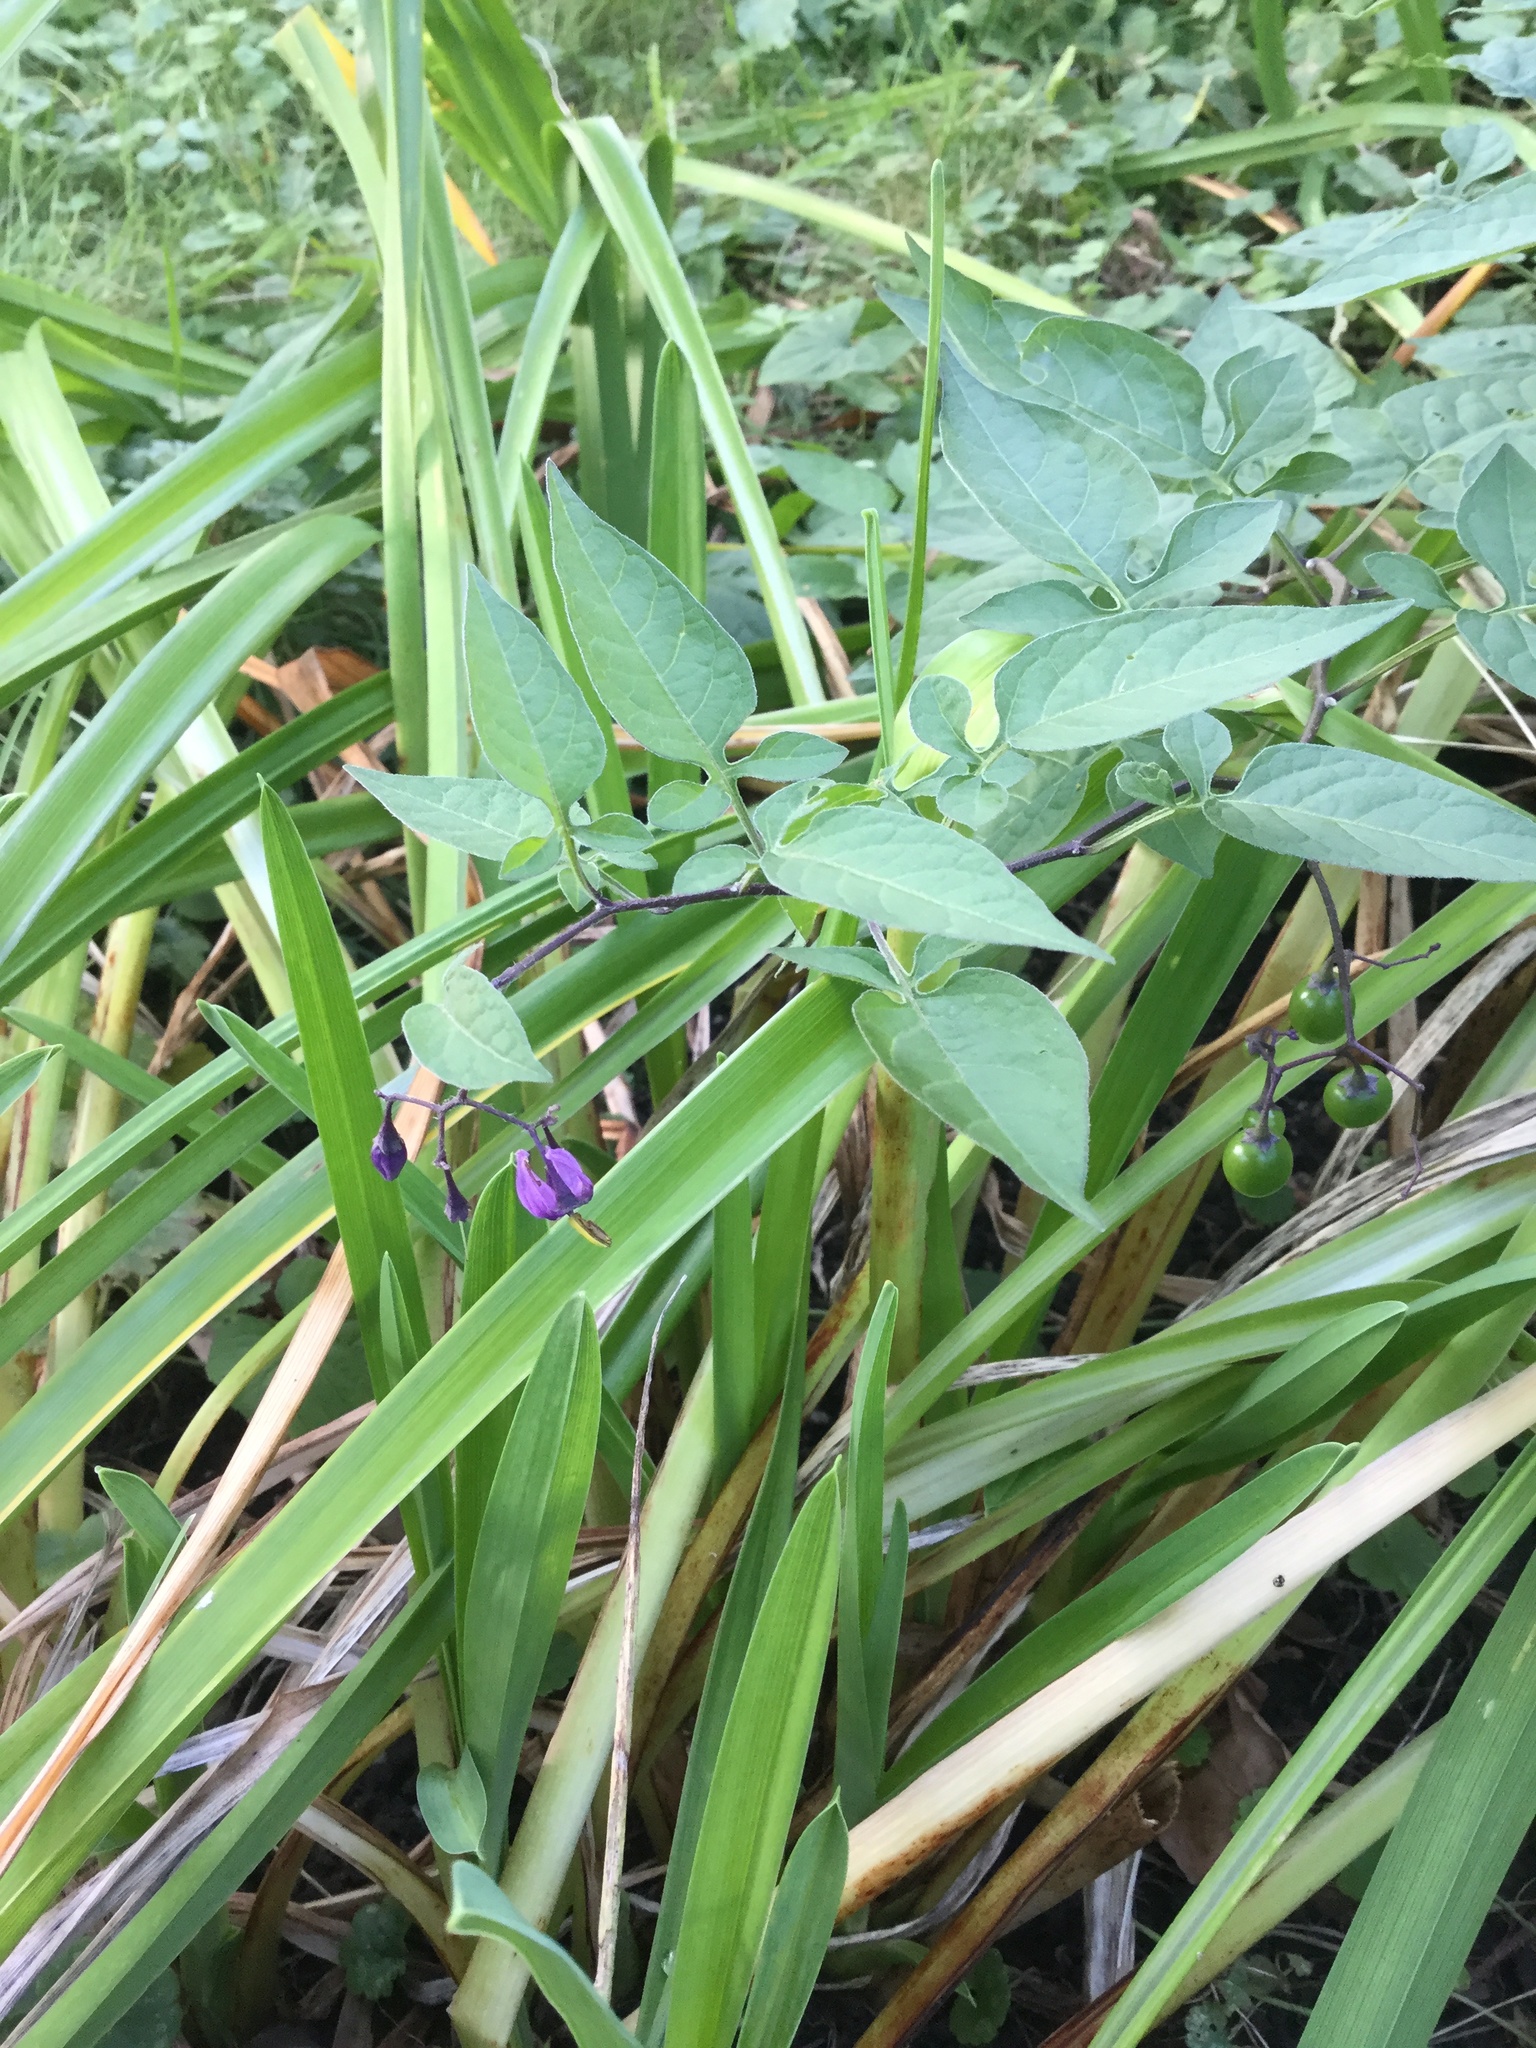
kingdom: Plantae
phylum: Tracheophyta
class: Magnoliopsida
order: Solanales
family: Solanaceae
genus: Solanum
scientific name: Solanum dulcamara
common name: Climbing nightshade
